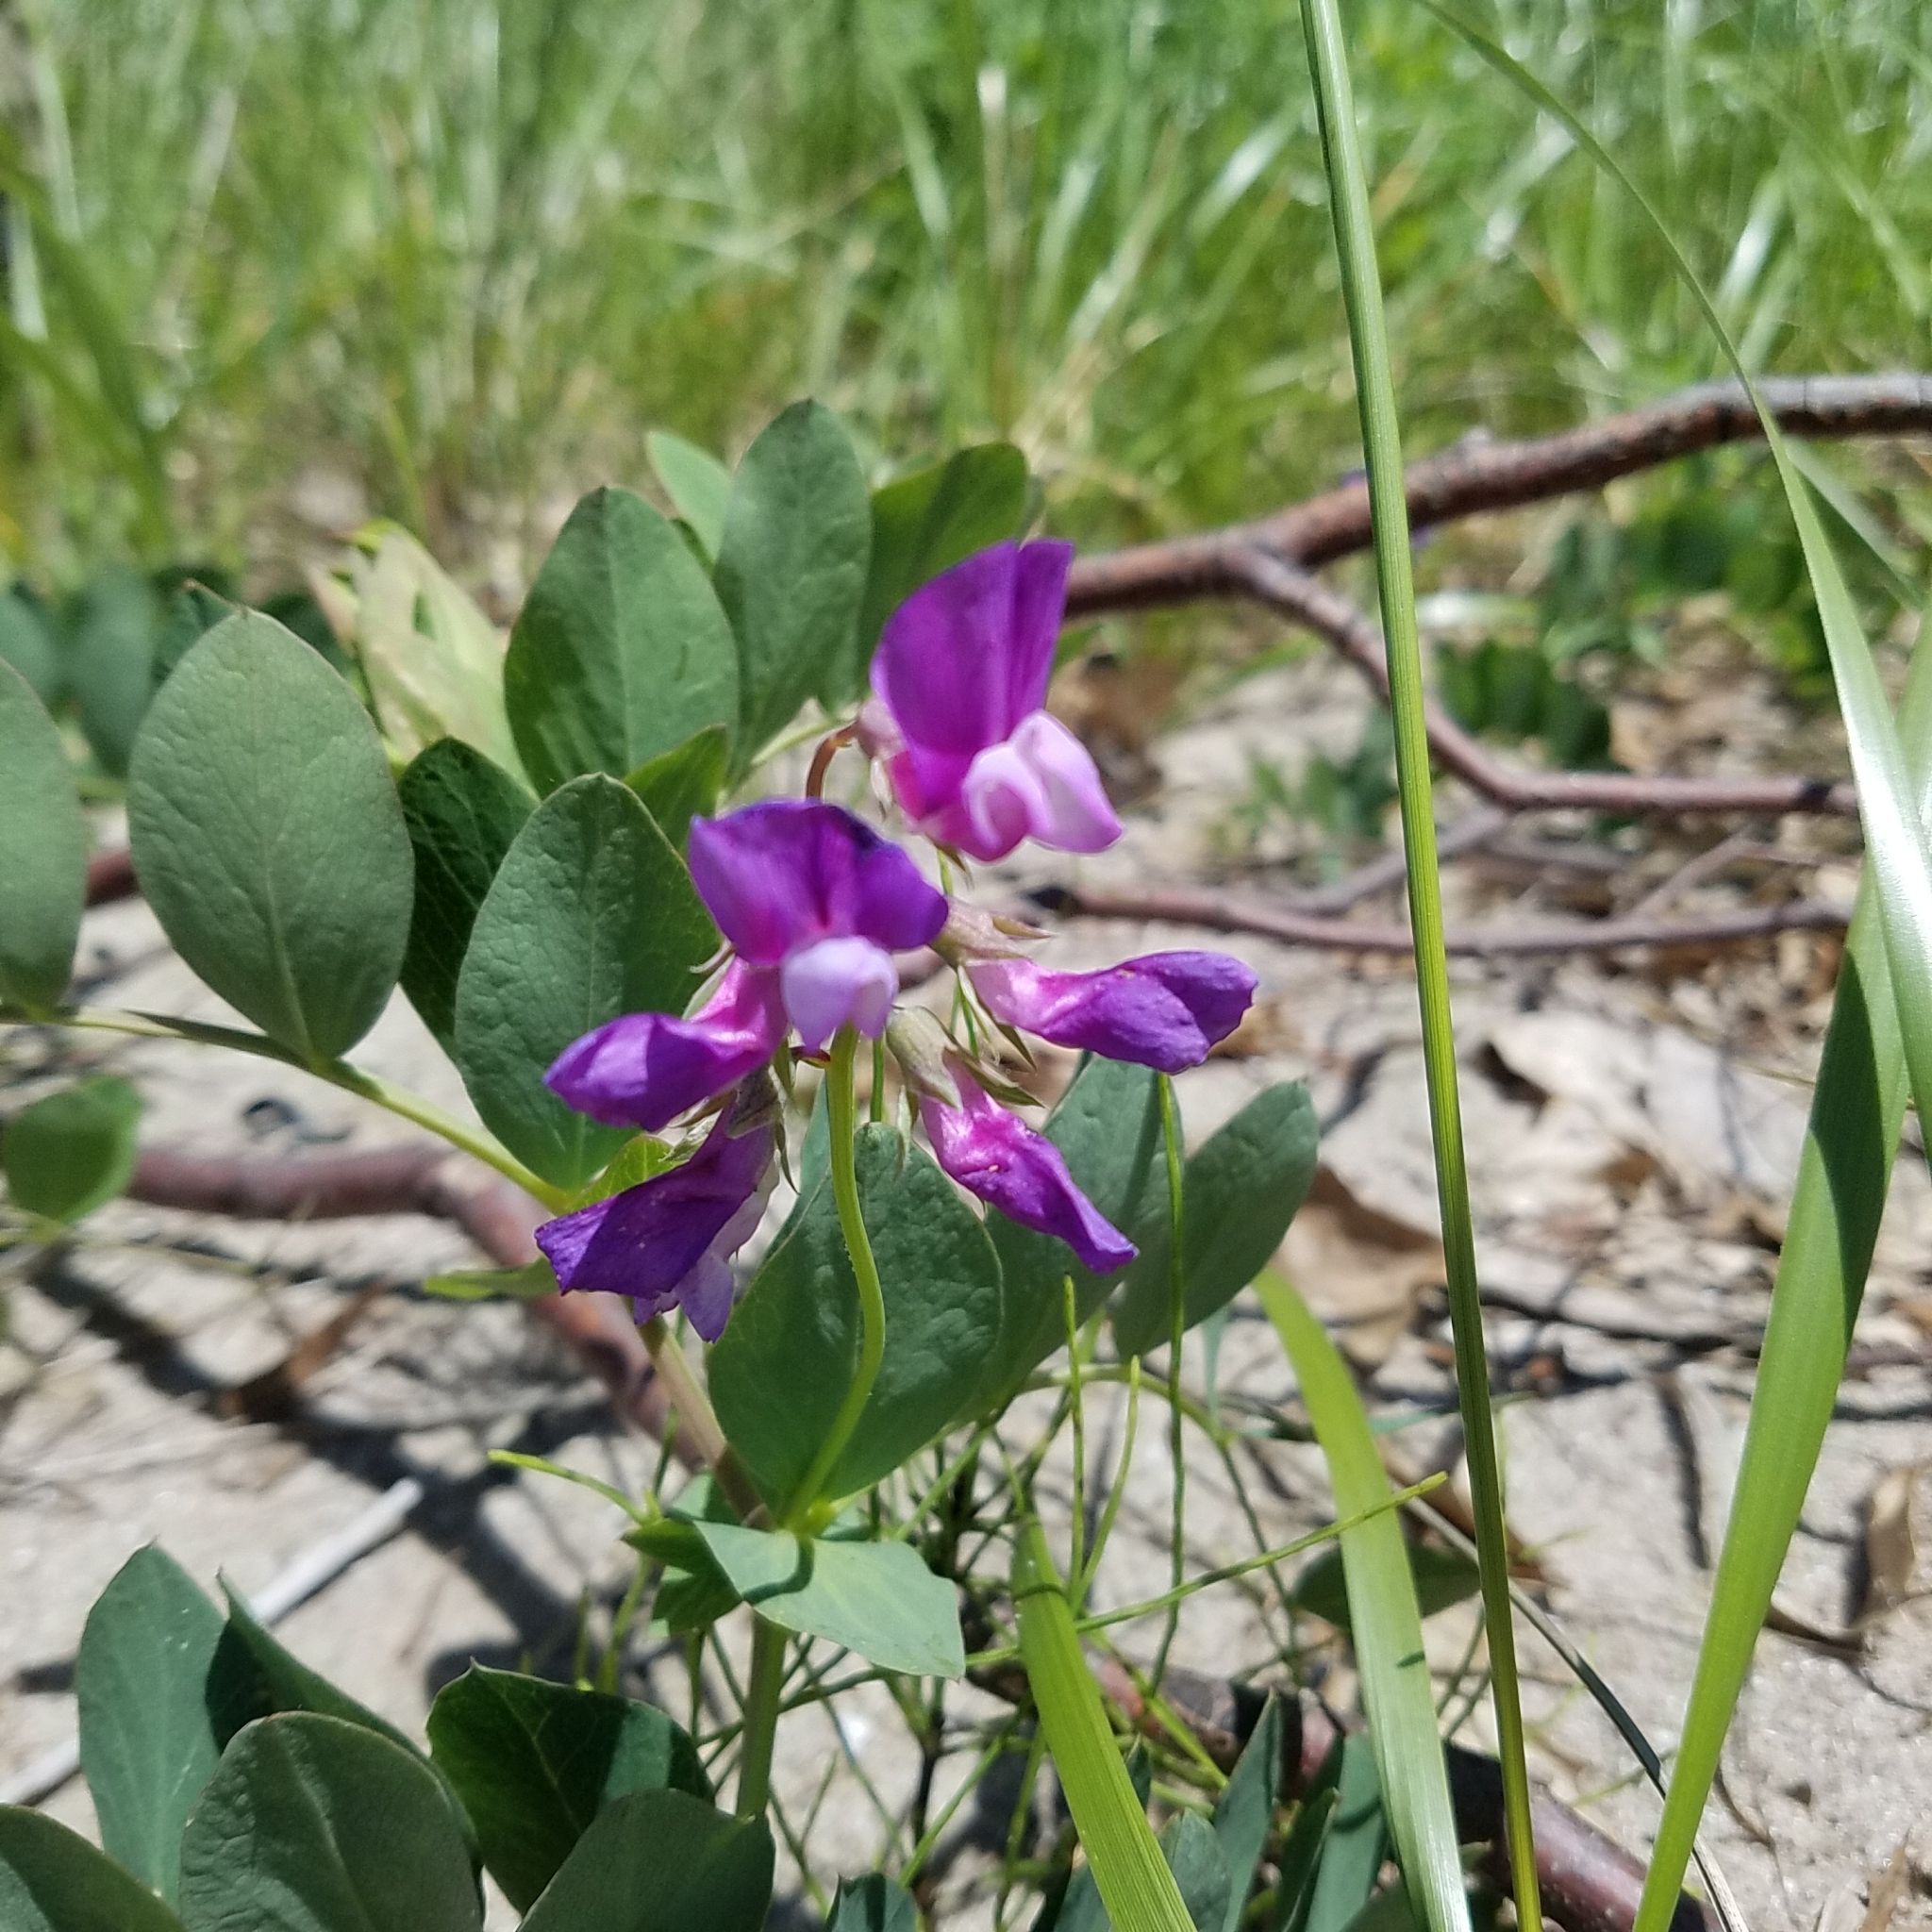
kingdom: Plantae
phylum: Tracheophyta
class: Magnoliopsida
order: Fabales
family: Fabaceae
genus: Lathyrus
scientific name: Lathyrus japonicus
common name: Sea pea
